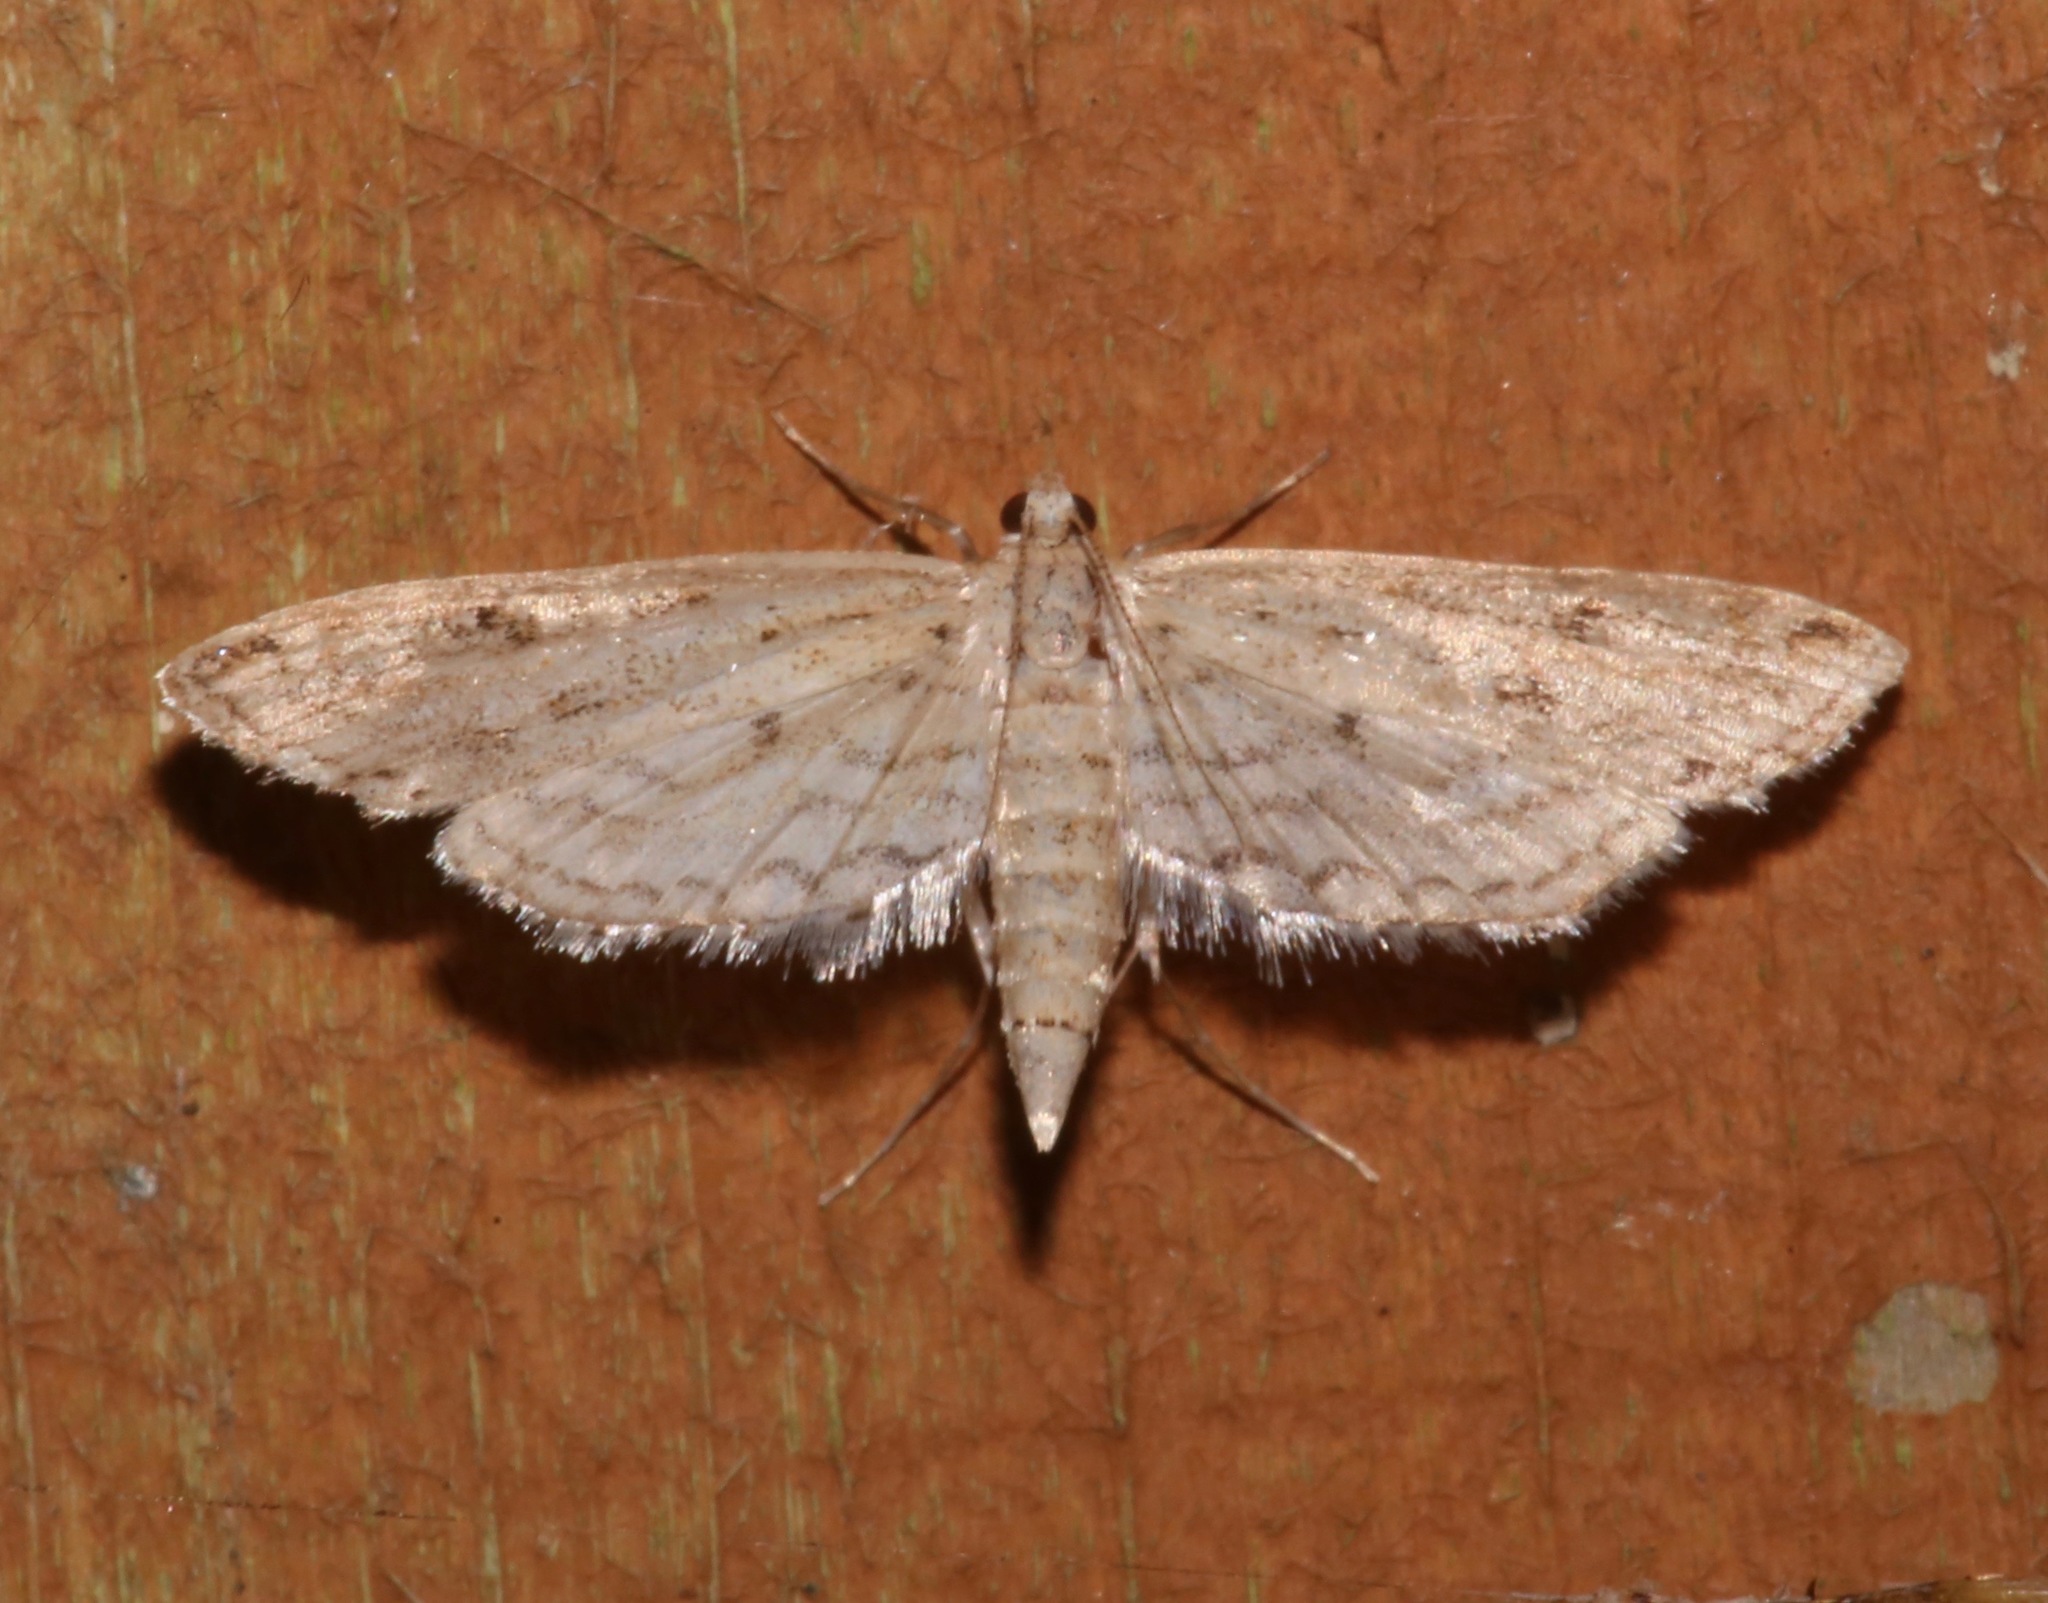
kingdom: Animalia
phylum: Arthropoda
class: Insecta
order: Lepidoptera
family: Crambidae
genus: Parapoynx
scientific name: Parapoynx allionealis
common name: Bladderwort casemaker
